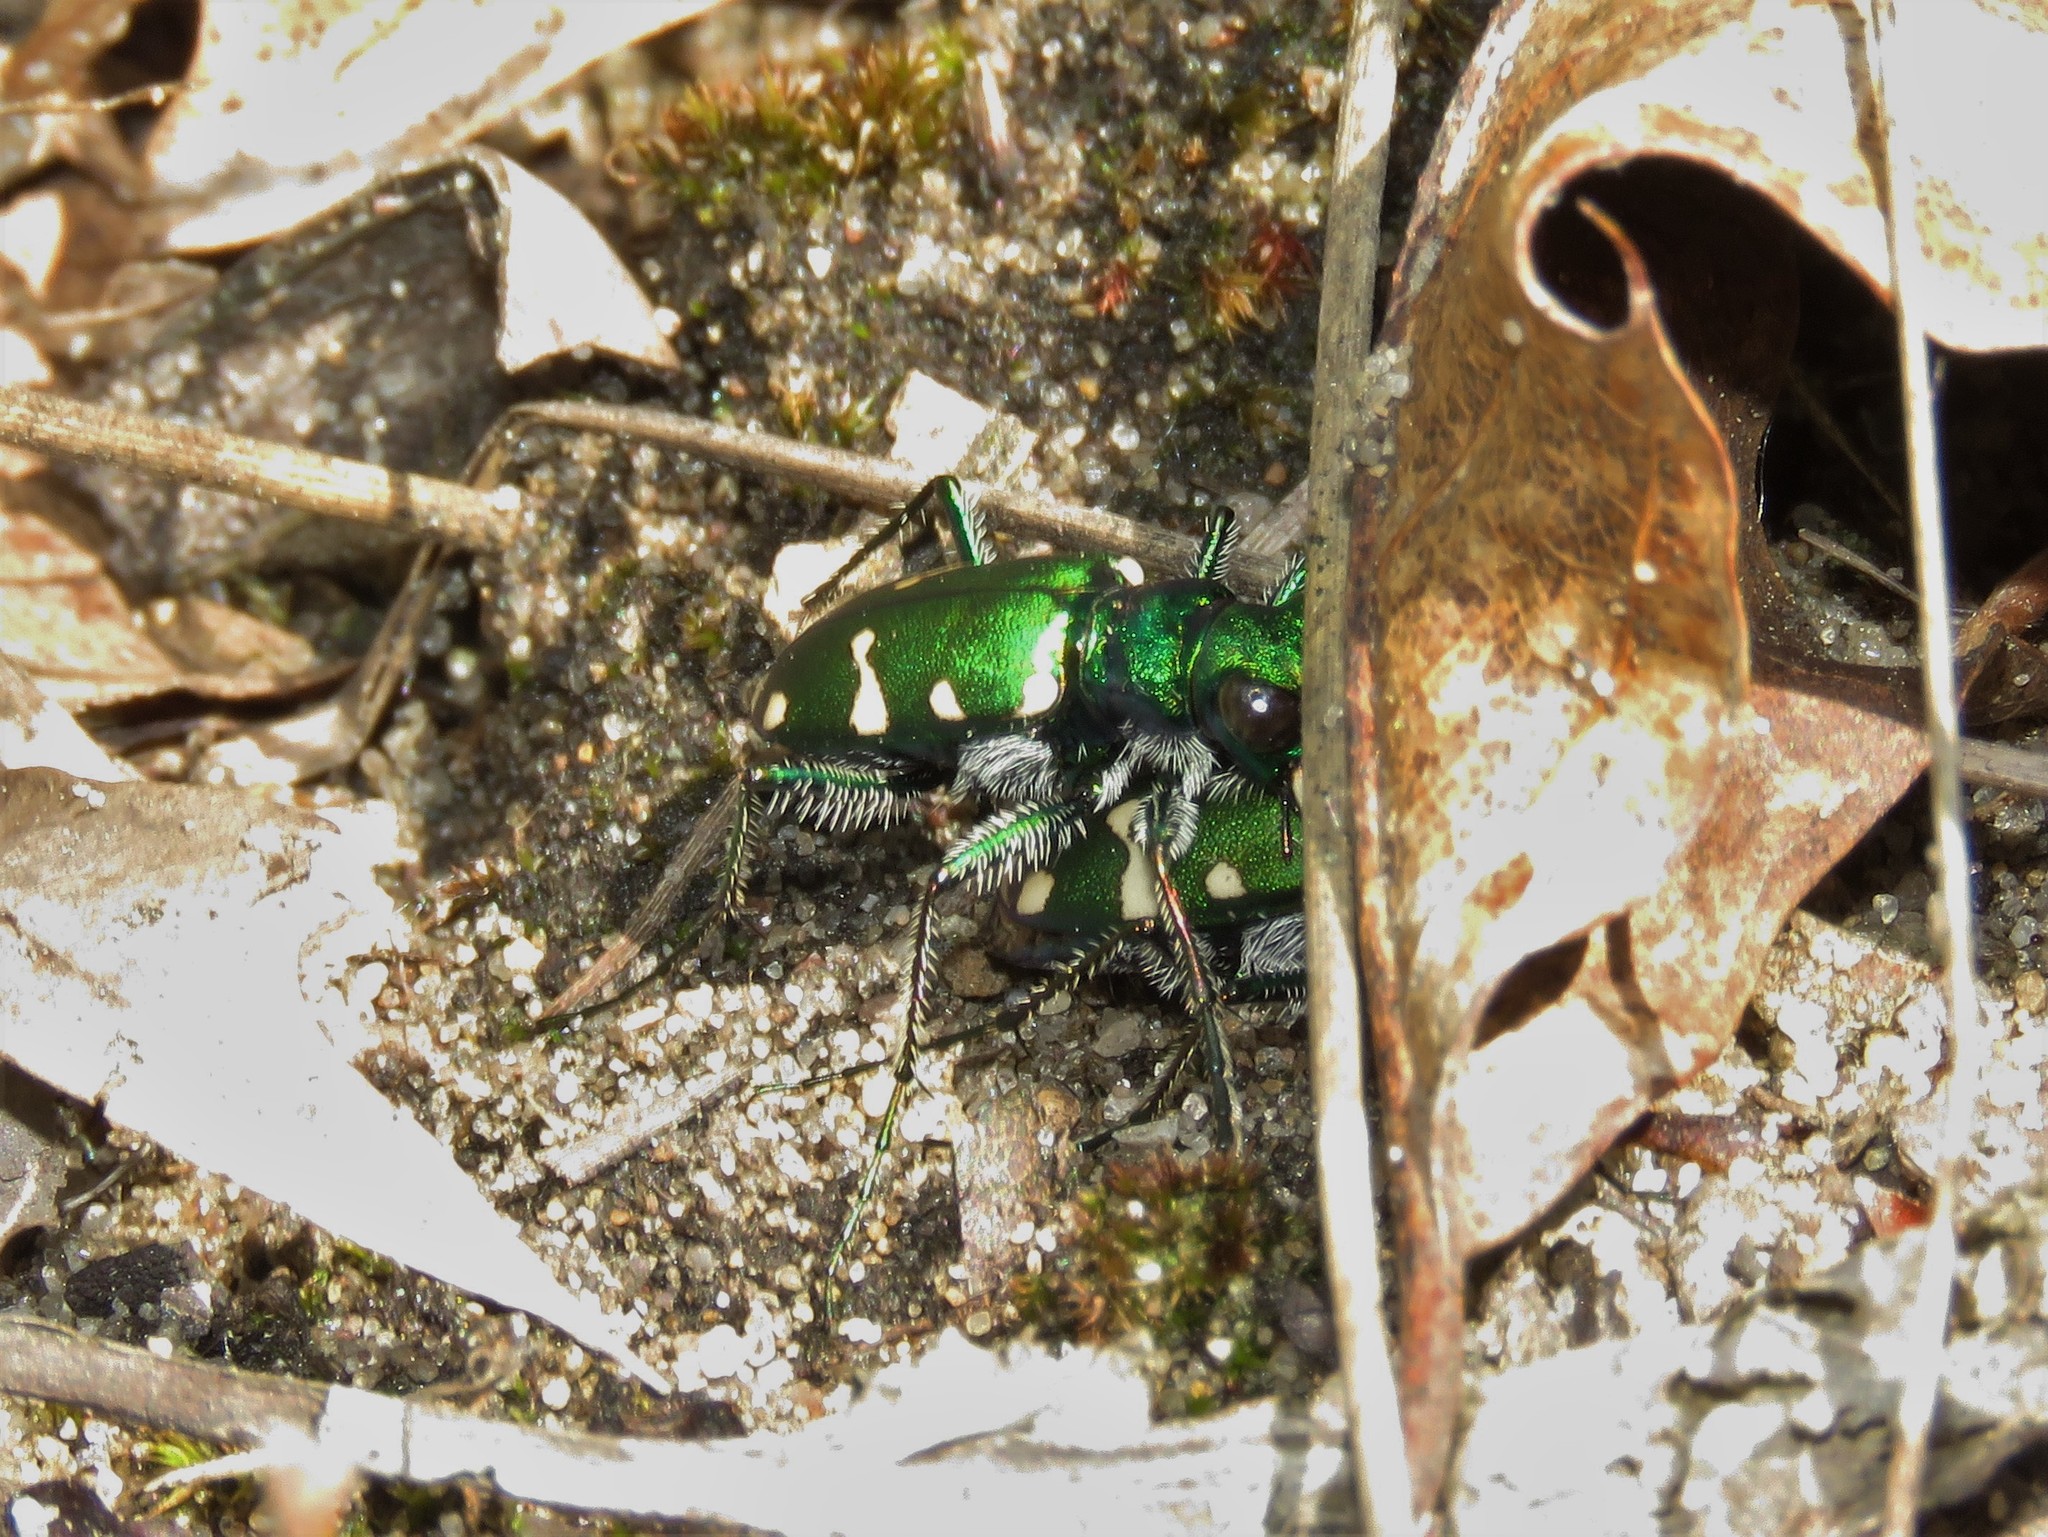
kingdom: Animalia
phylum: Arthropoda
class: Insecta
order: Coleoptera
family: Carabidae
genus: Cicindela
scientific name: Cicindela patruela
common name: Northern barrens tiger beetle
